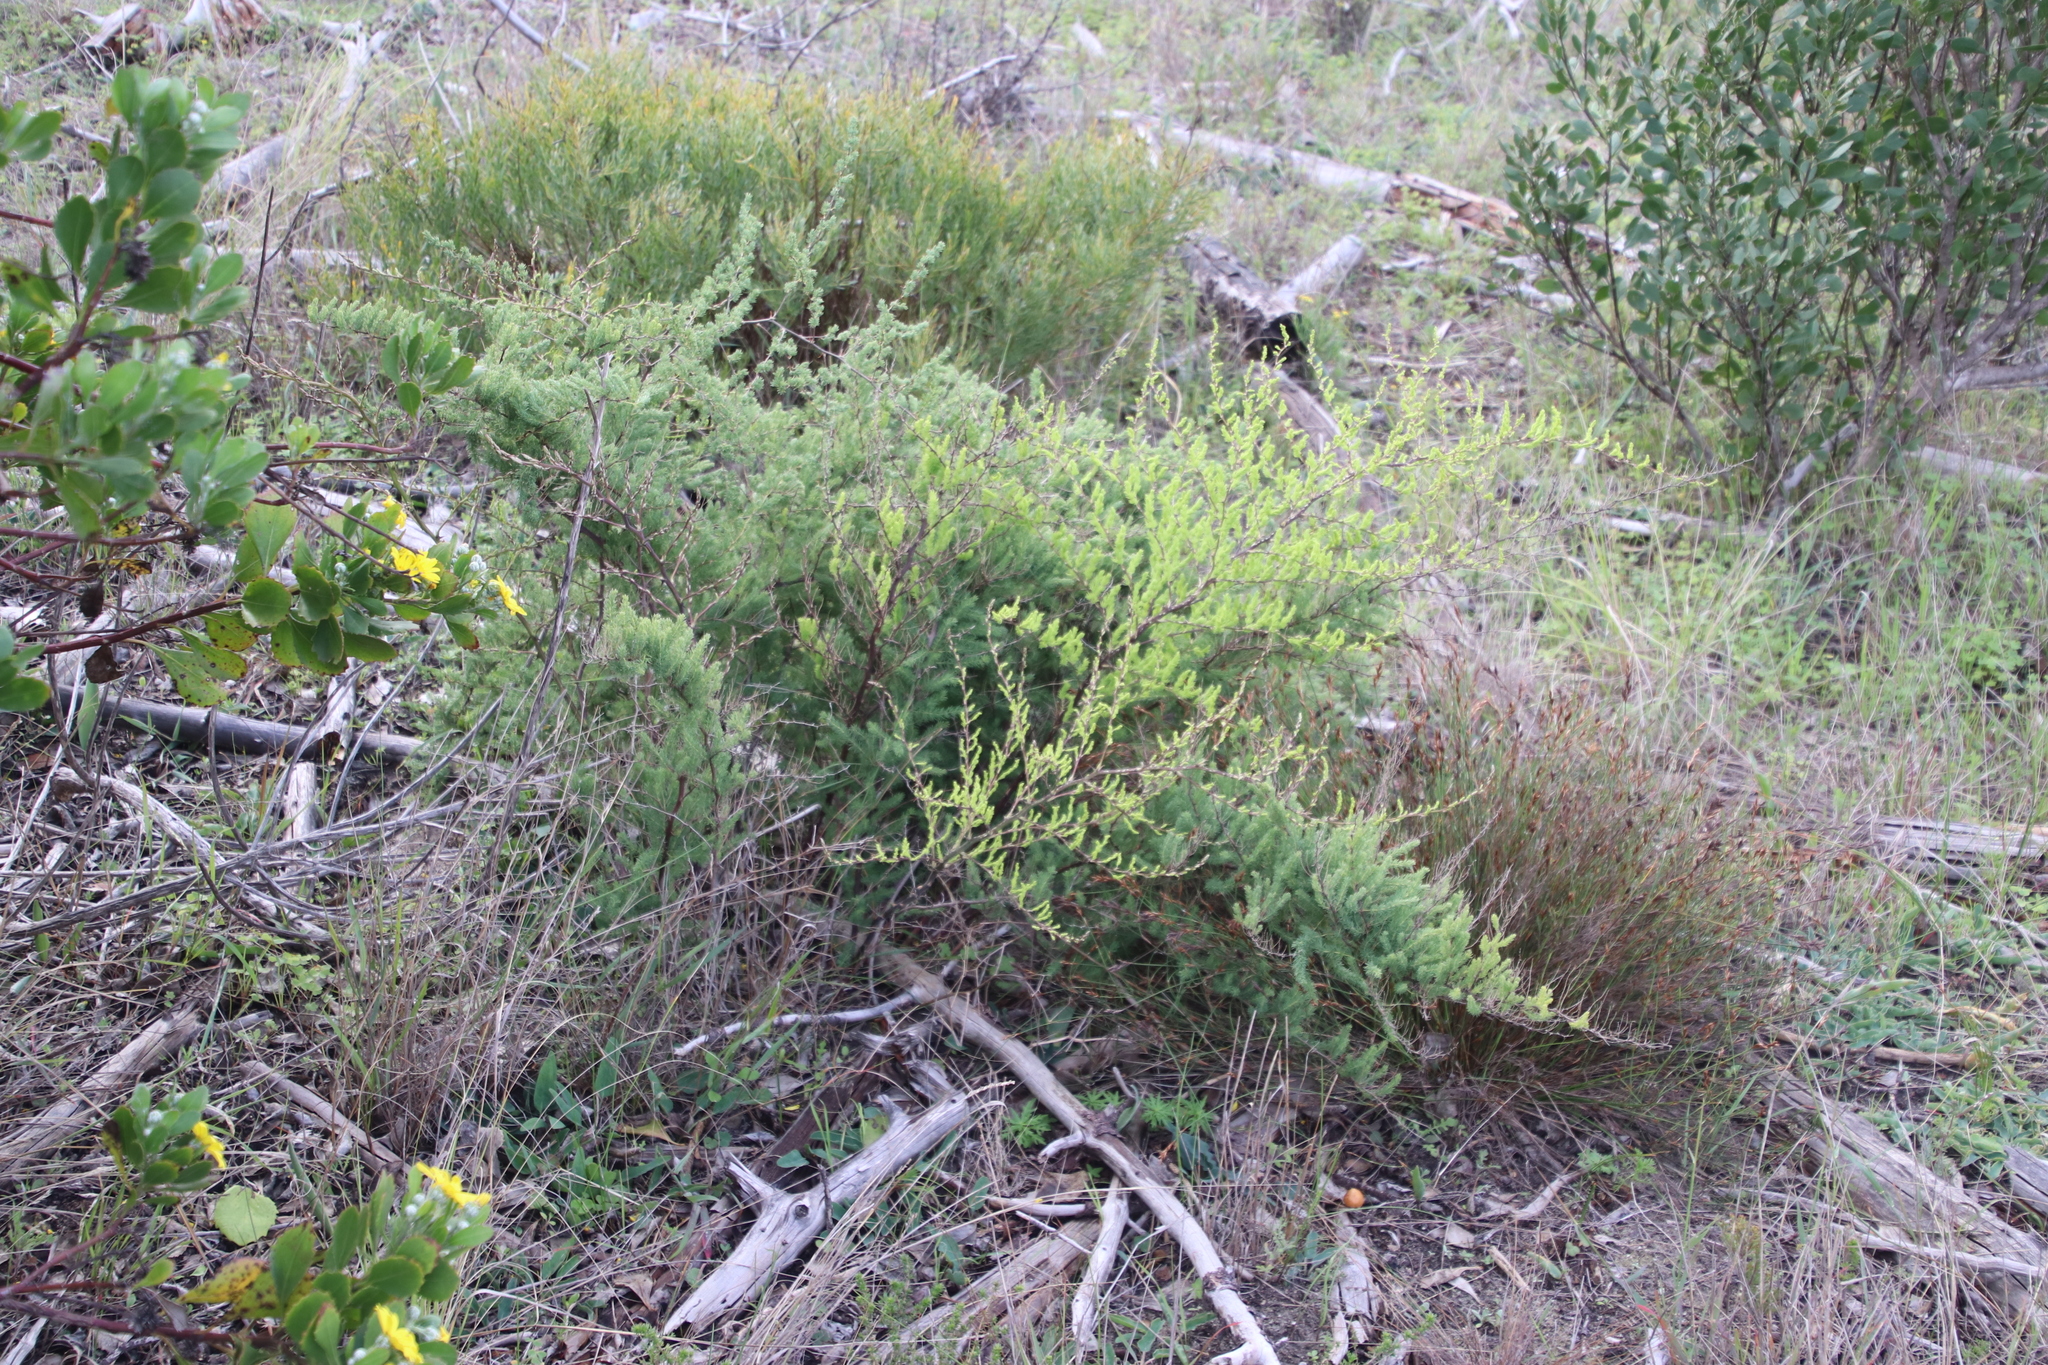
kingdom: Plantae
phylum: Tracheophyta
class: Liliopsida
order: Asparagales
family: Asparagaceae
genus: Asparagus
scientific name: Asparagus rubicundus
